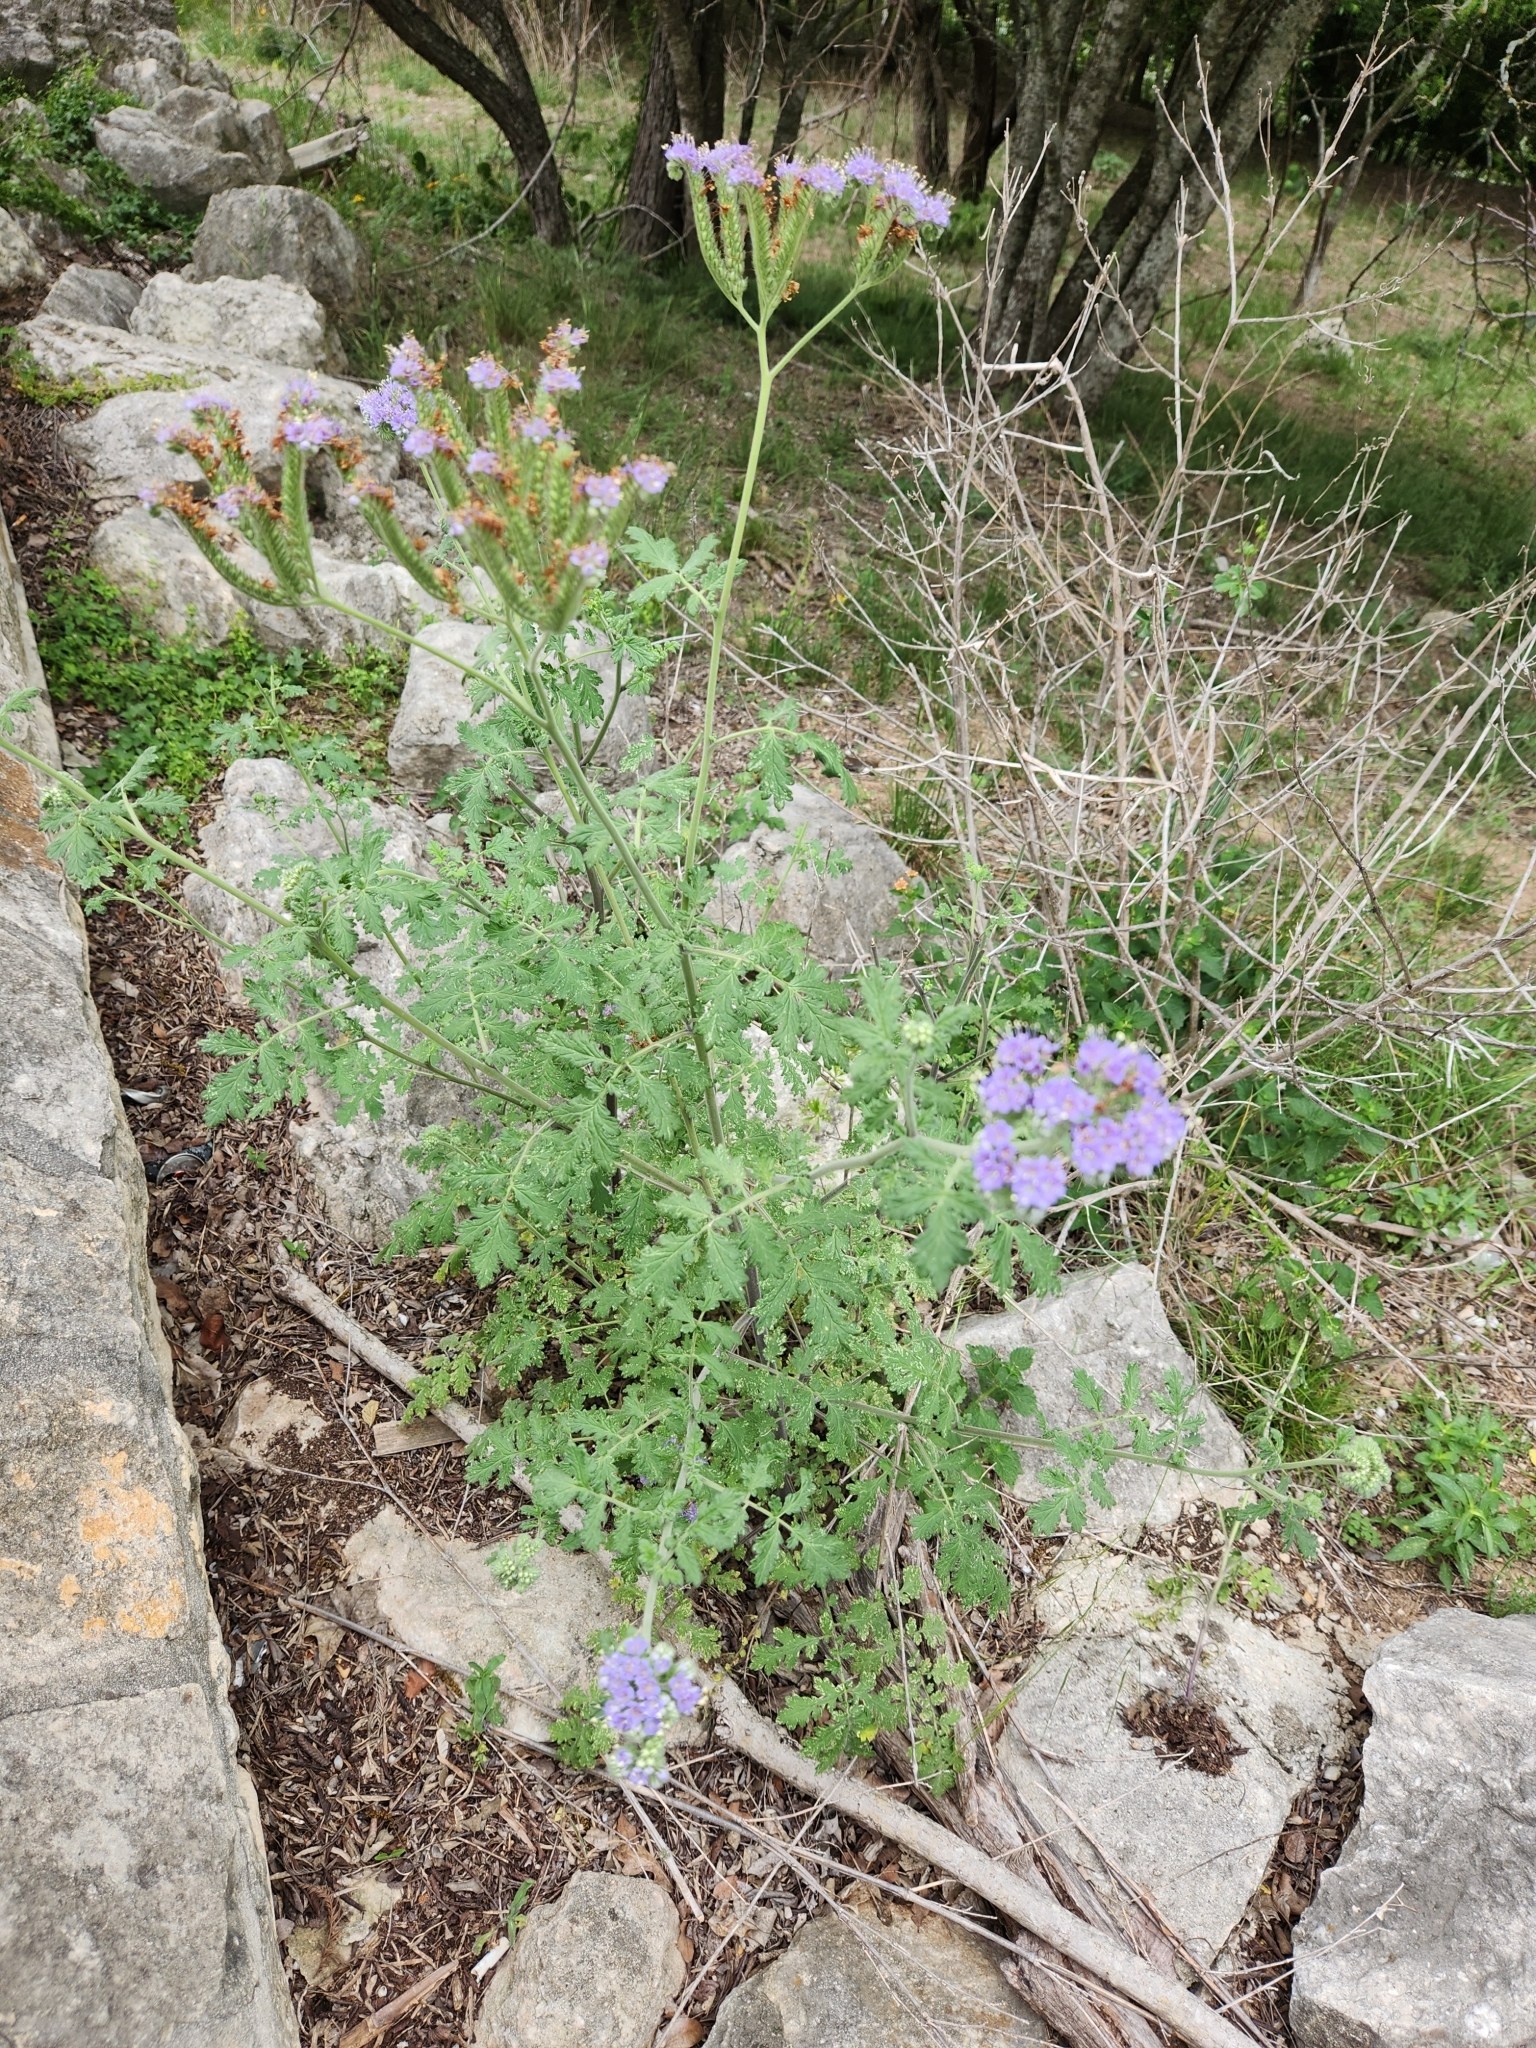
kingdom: Plantae
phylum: Tracheophyta
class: Magnoliopsida
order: Boraginales
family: Hydrophyllaceae
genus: Phacelia
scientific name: Phacelia congesta
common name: Blue curls
